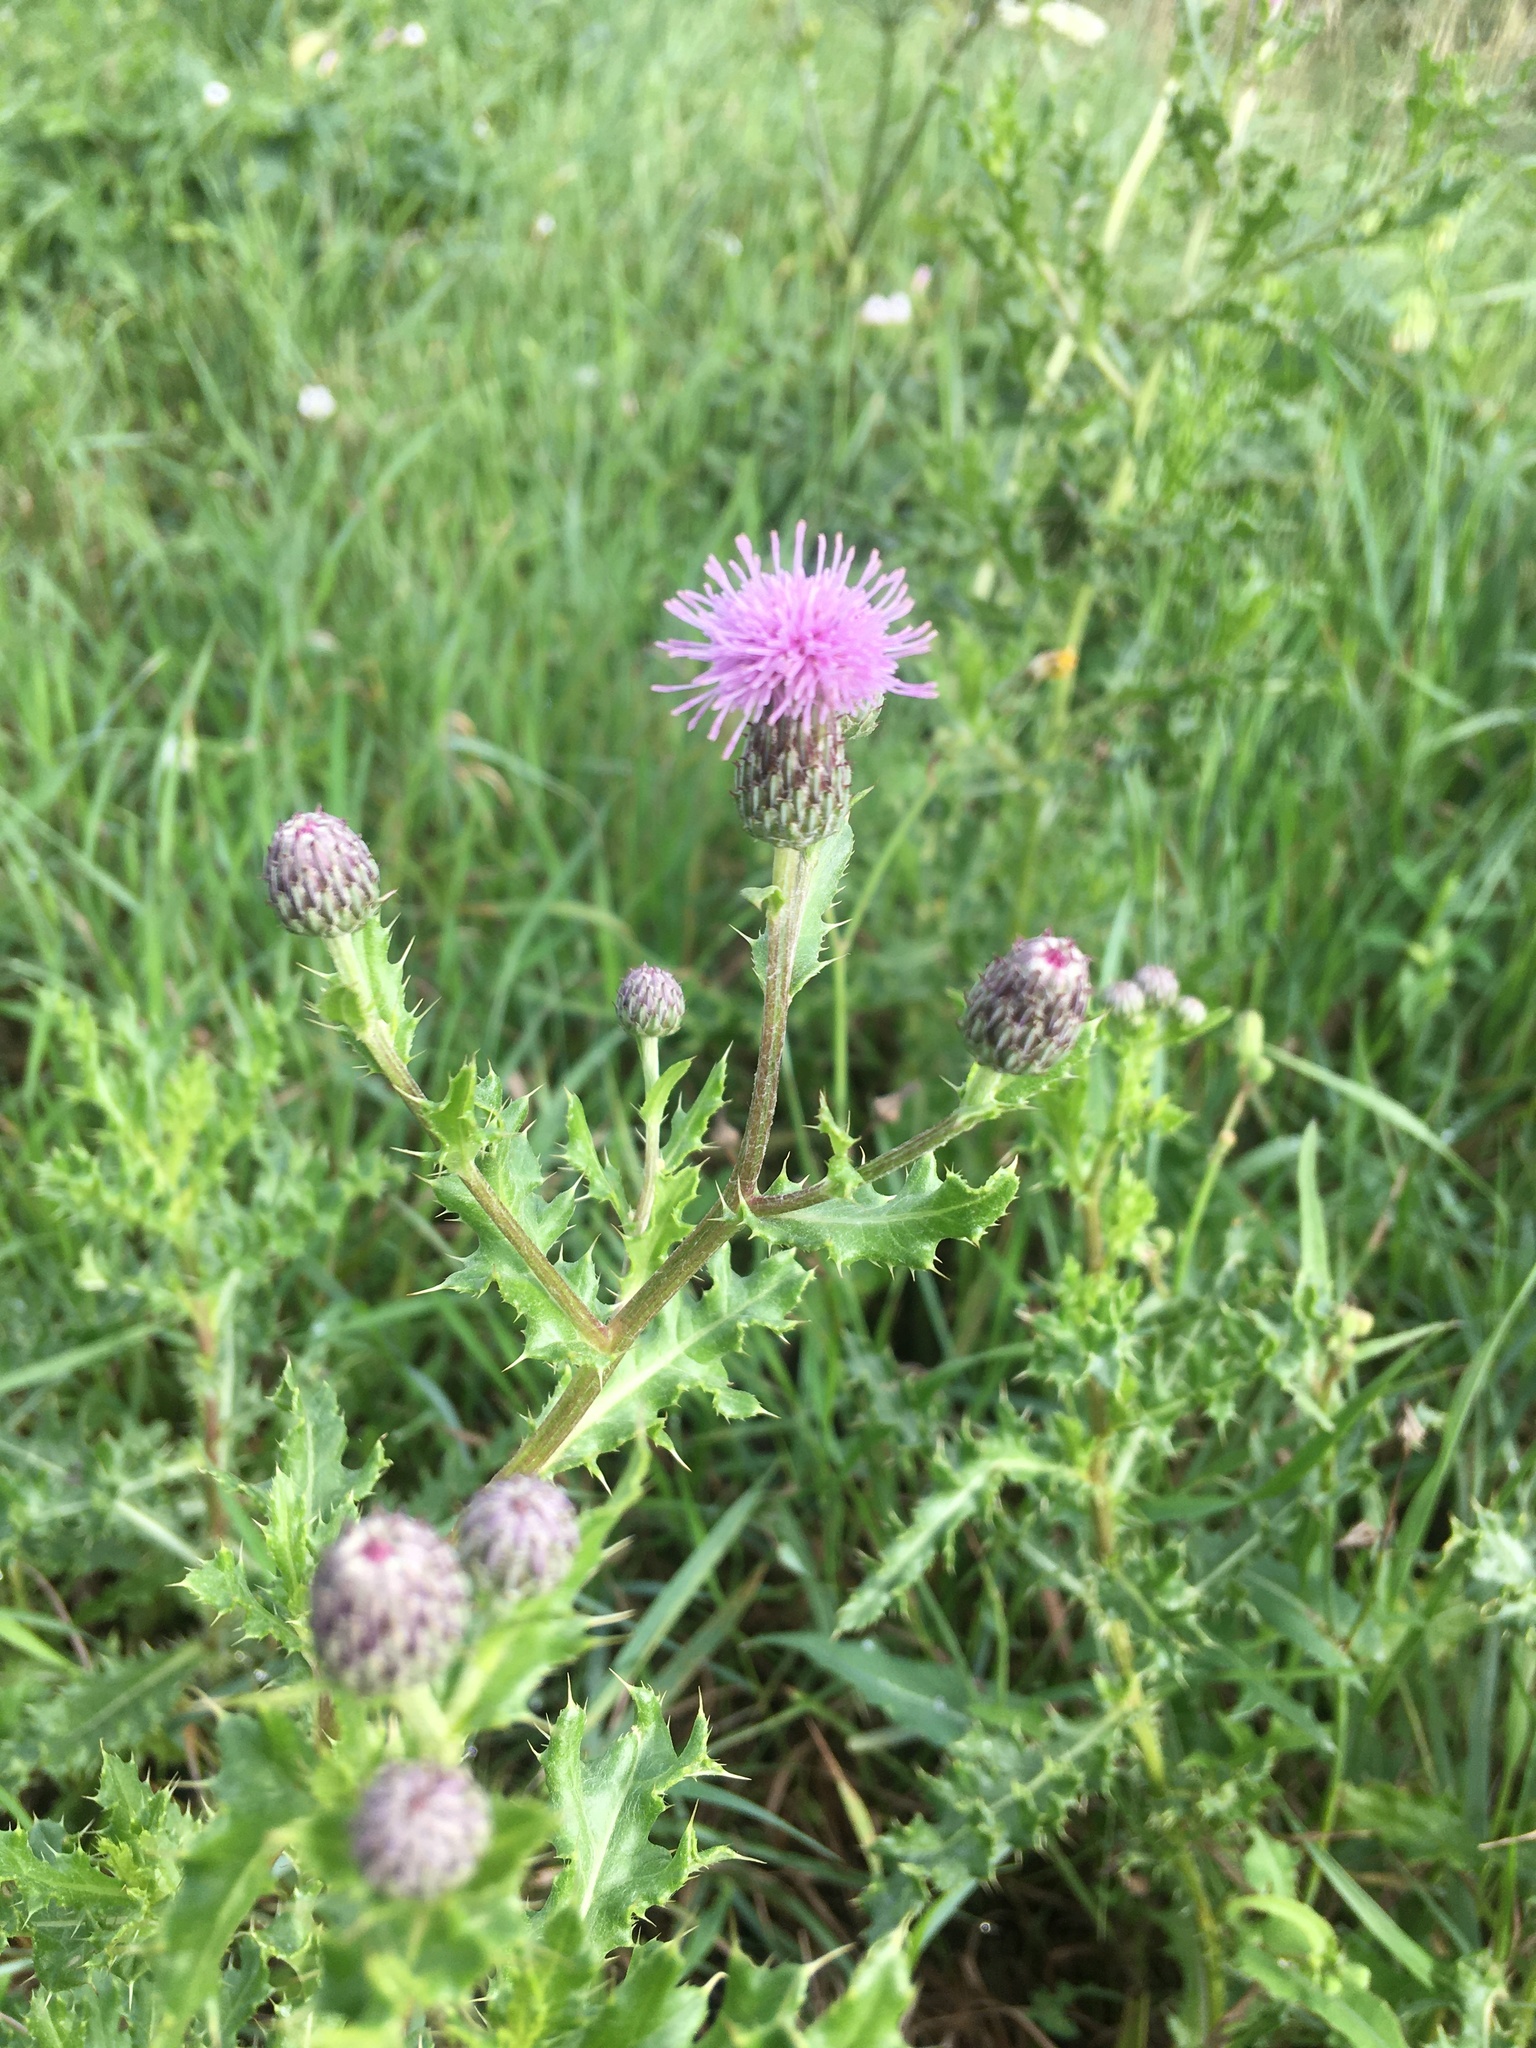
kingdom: Plantae
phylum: Tracheophyta
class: Magnoliopsida
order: Asterales
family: Asteraceae
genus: Cirsium
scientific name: Cirsium arvense
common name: Creeping thistle
